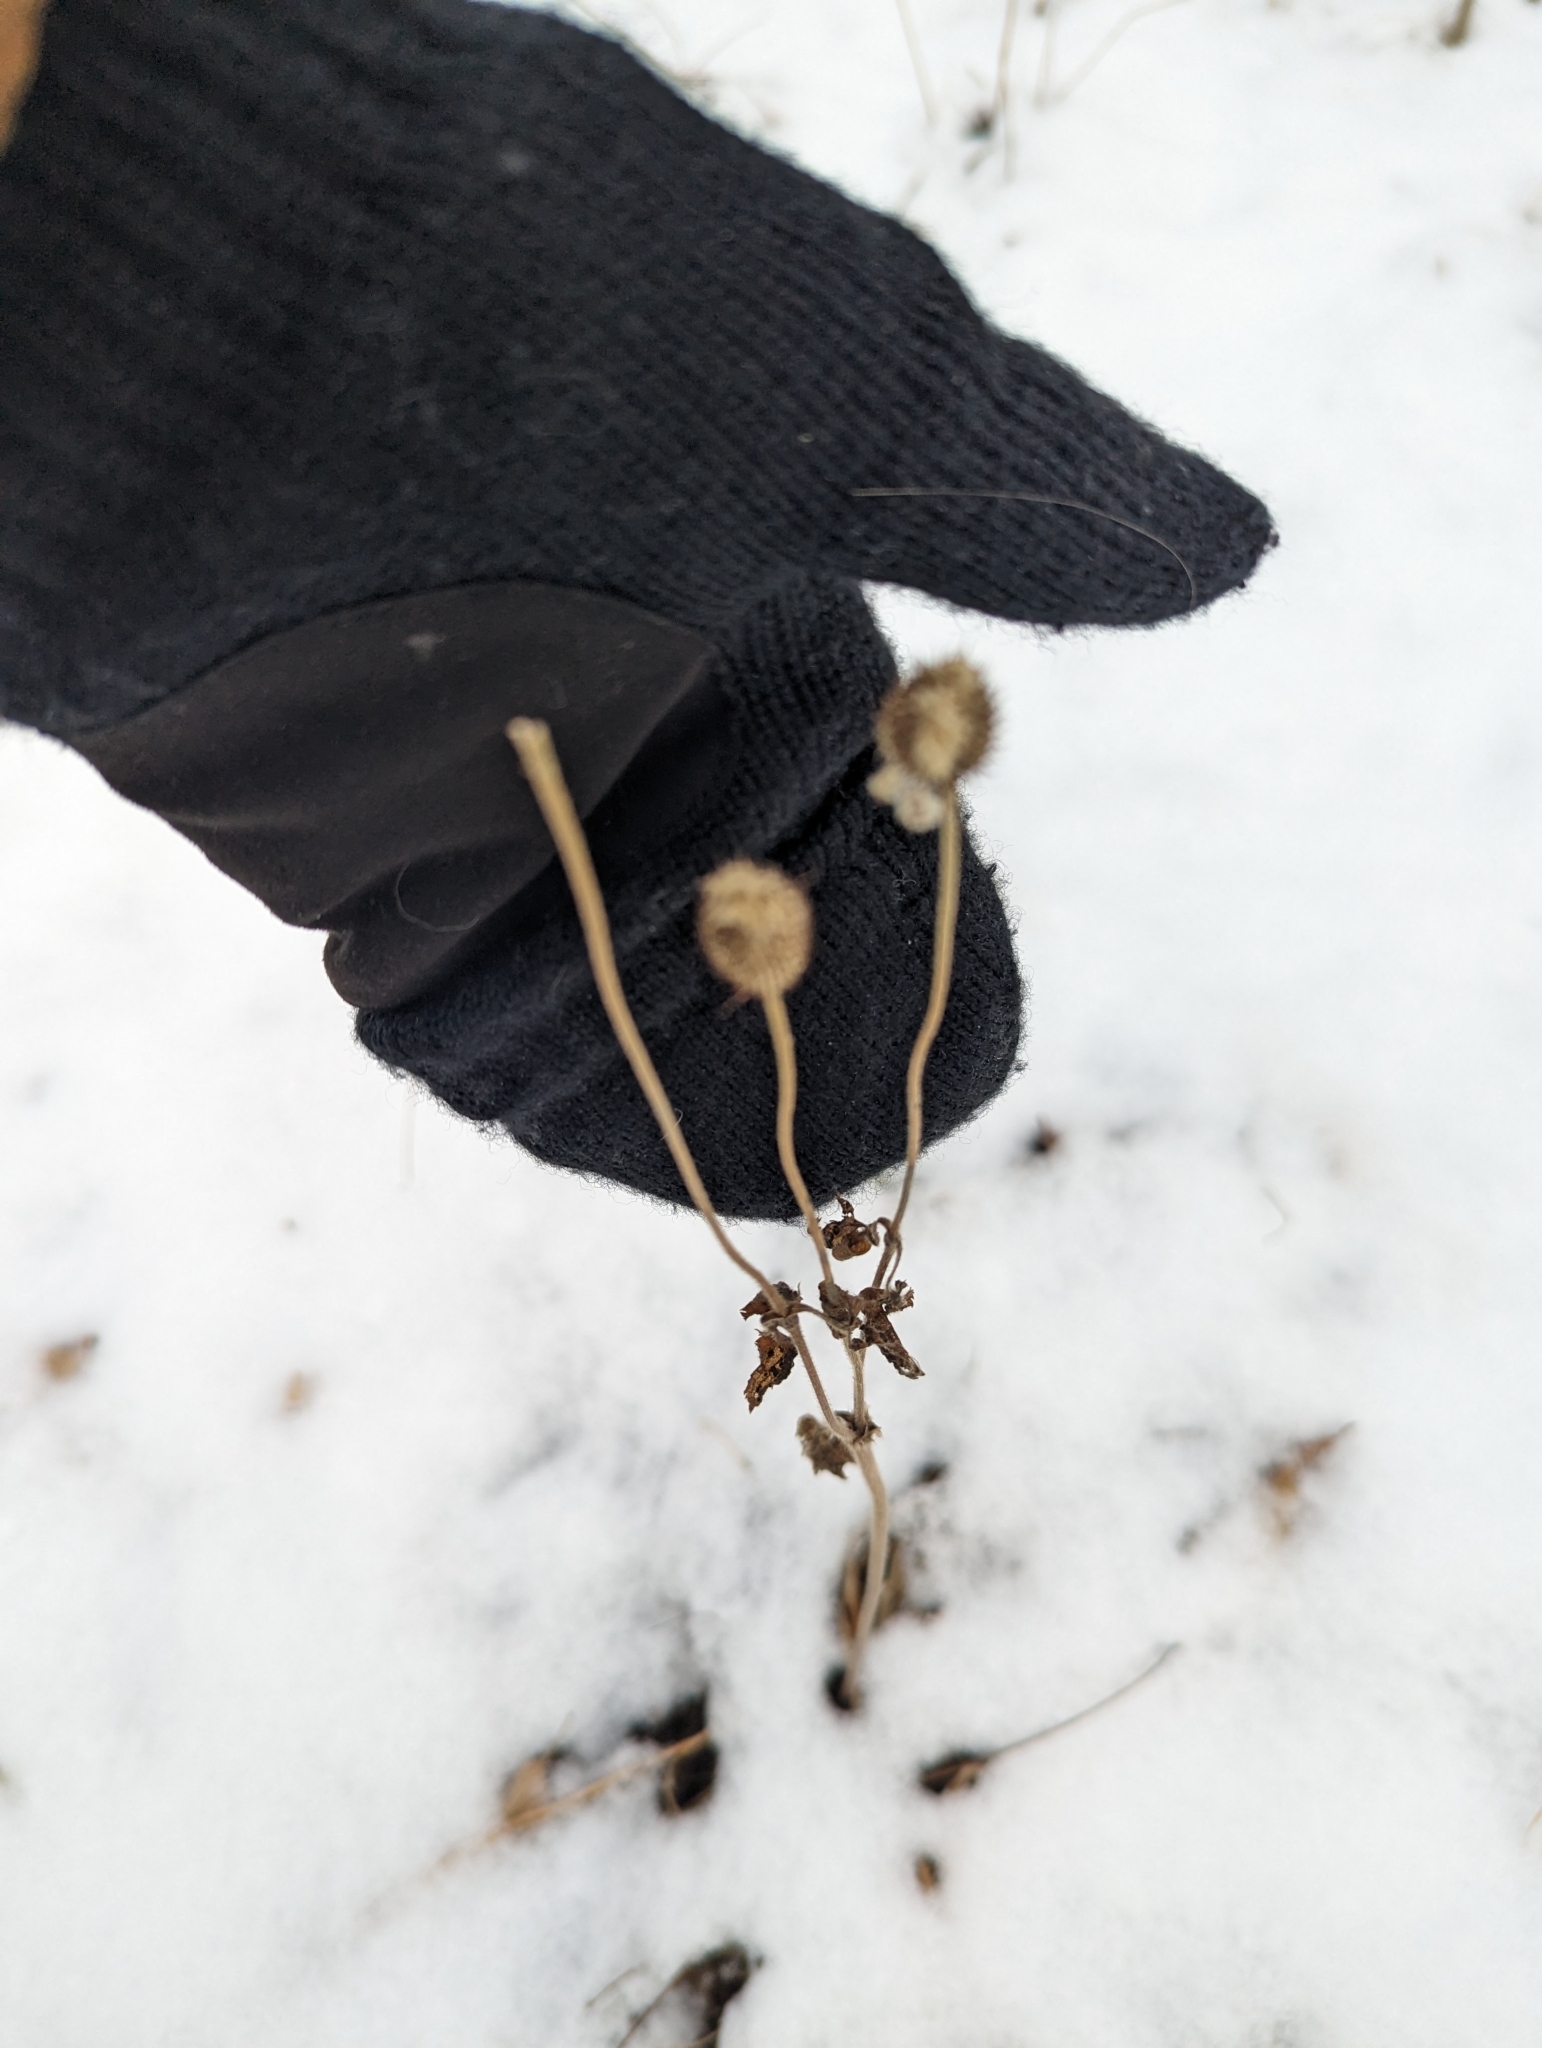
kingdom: Plantae
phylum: Tracheophyta
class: Magnoliopsida
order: Ranunculales
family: Ranunculaceae
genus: Anemone
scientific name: Anemone virginiana
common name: Tall anemone
